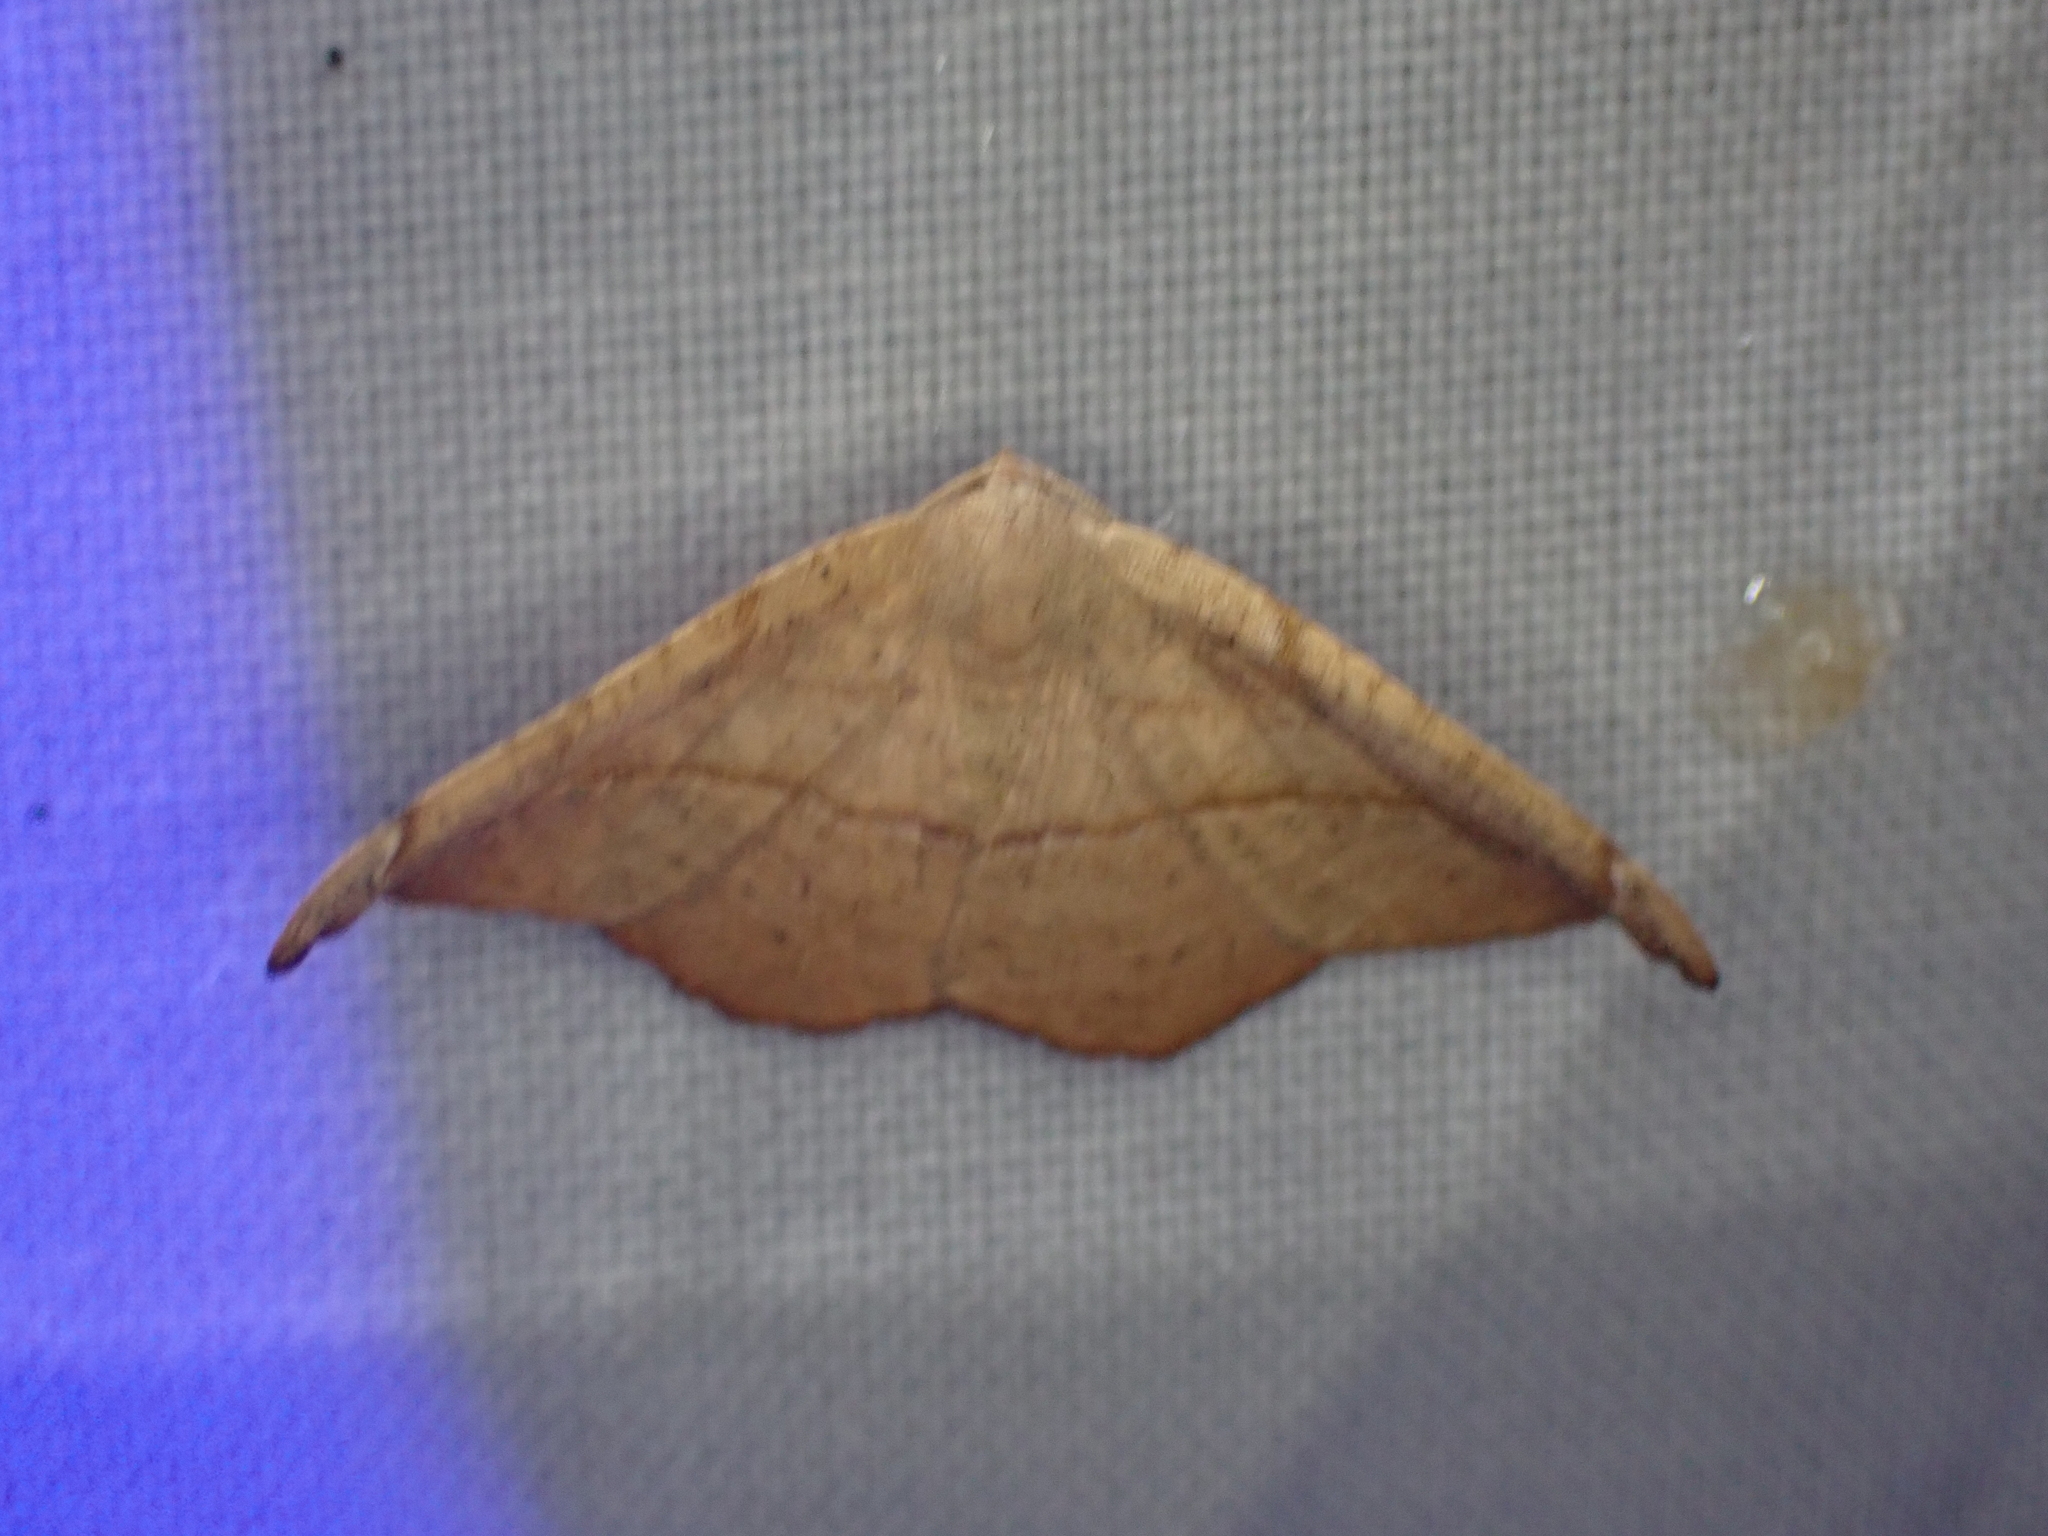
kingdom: Animalia
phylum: Arthropoda
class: Insecta
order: Lepidoptera
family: Geometridae
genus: Patalene
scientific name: Patalene olyzonaria
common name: Juniper geometer moth
